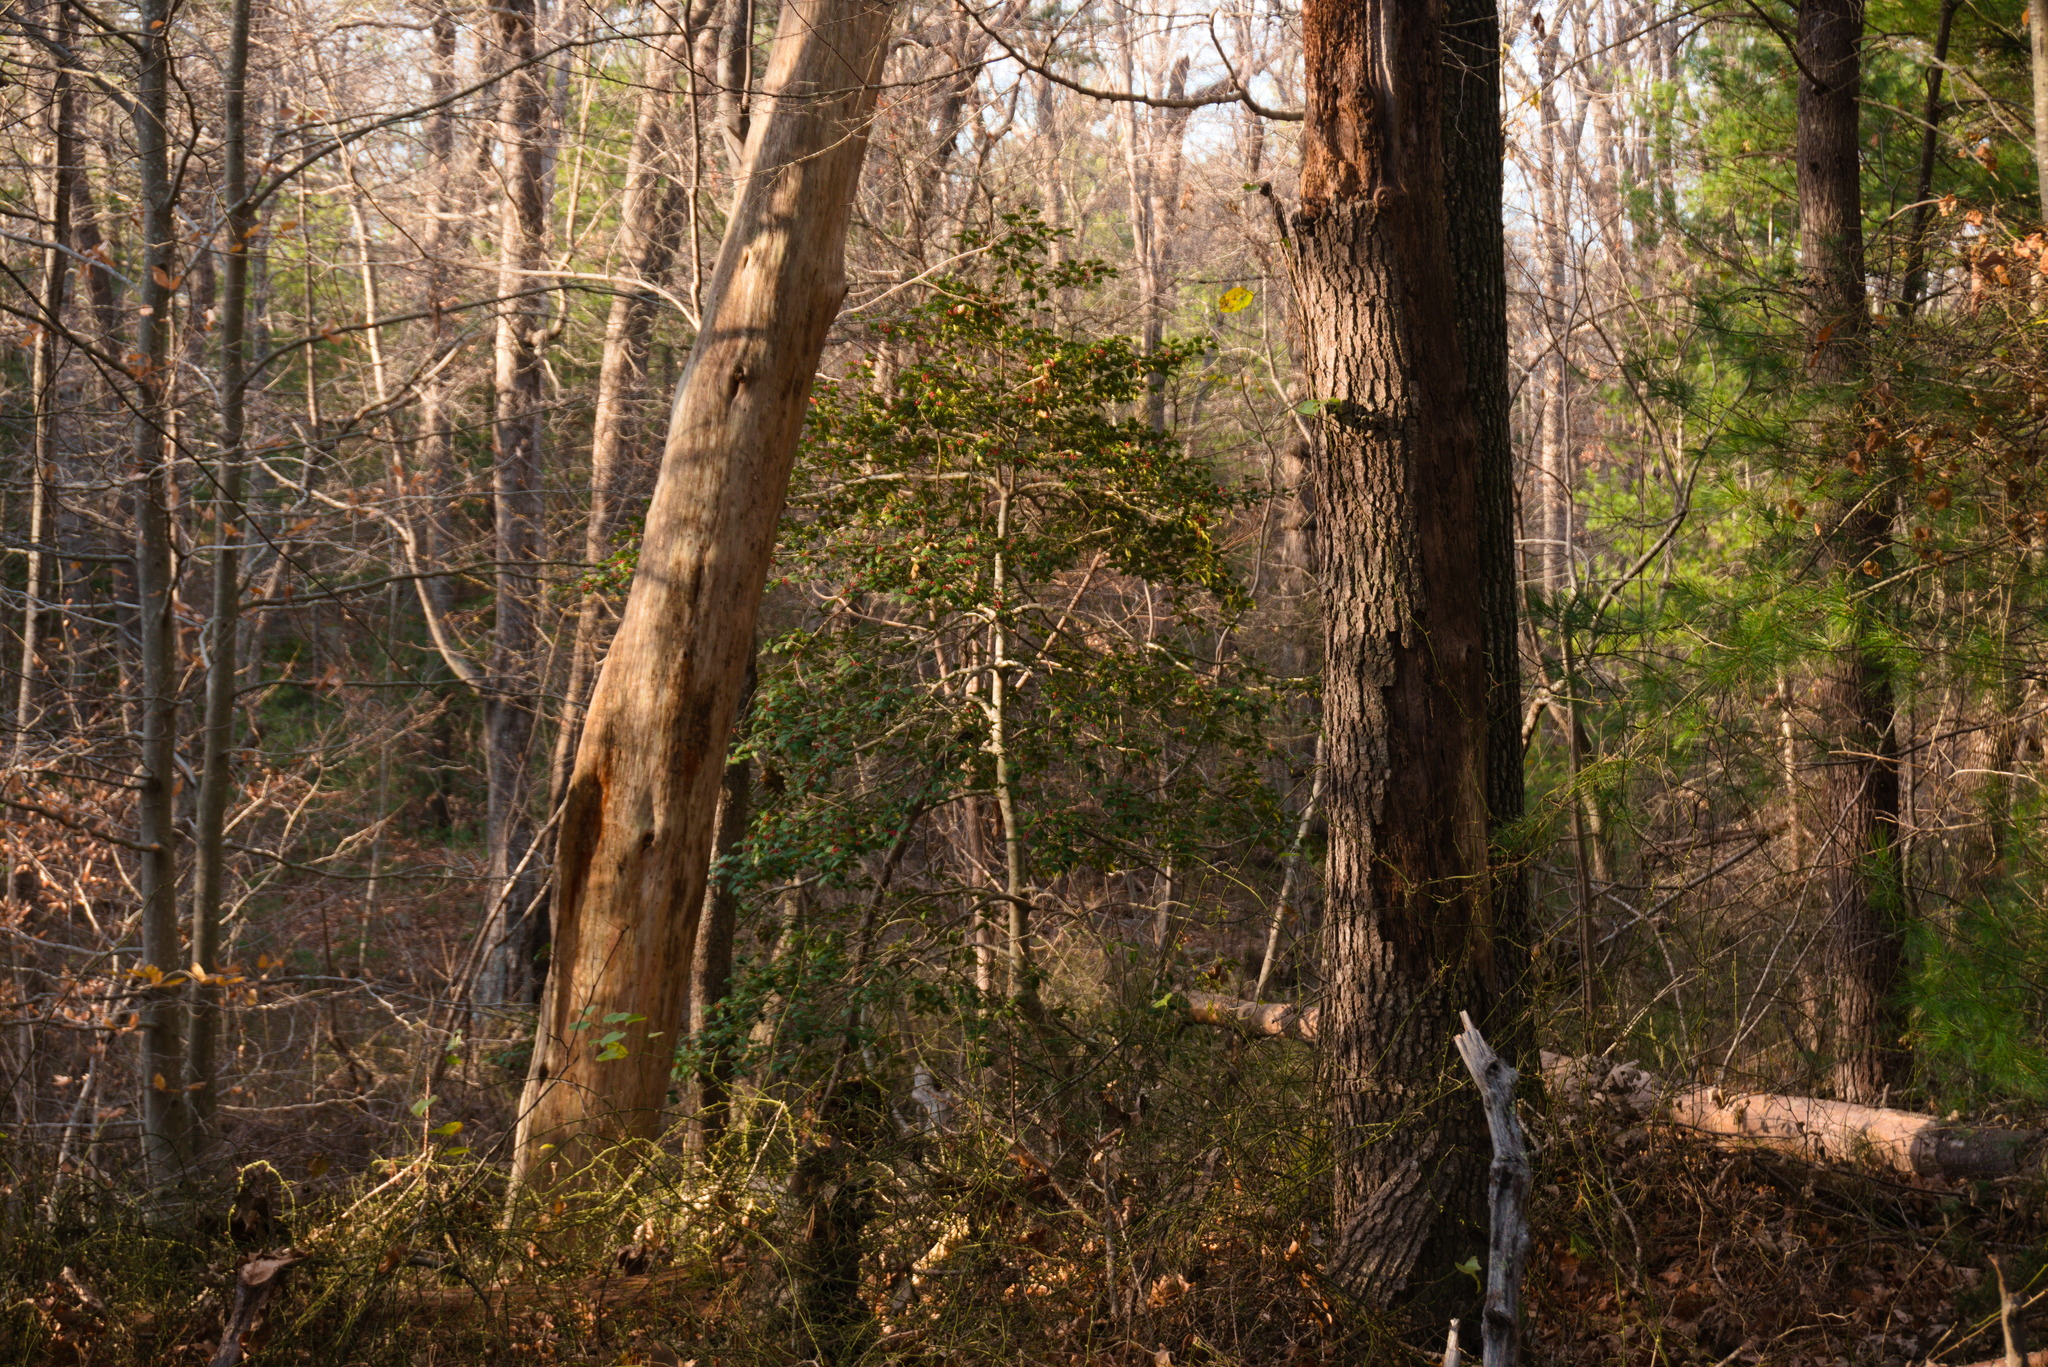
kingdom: Plantae
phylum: Tracheophyta
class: Magnoliopsida
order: Aquifoliales
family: Aquifoliaceae
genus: Ilex
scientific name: Ilex opaca
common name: American holly
